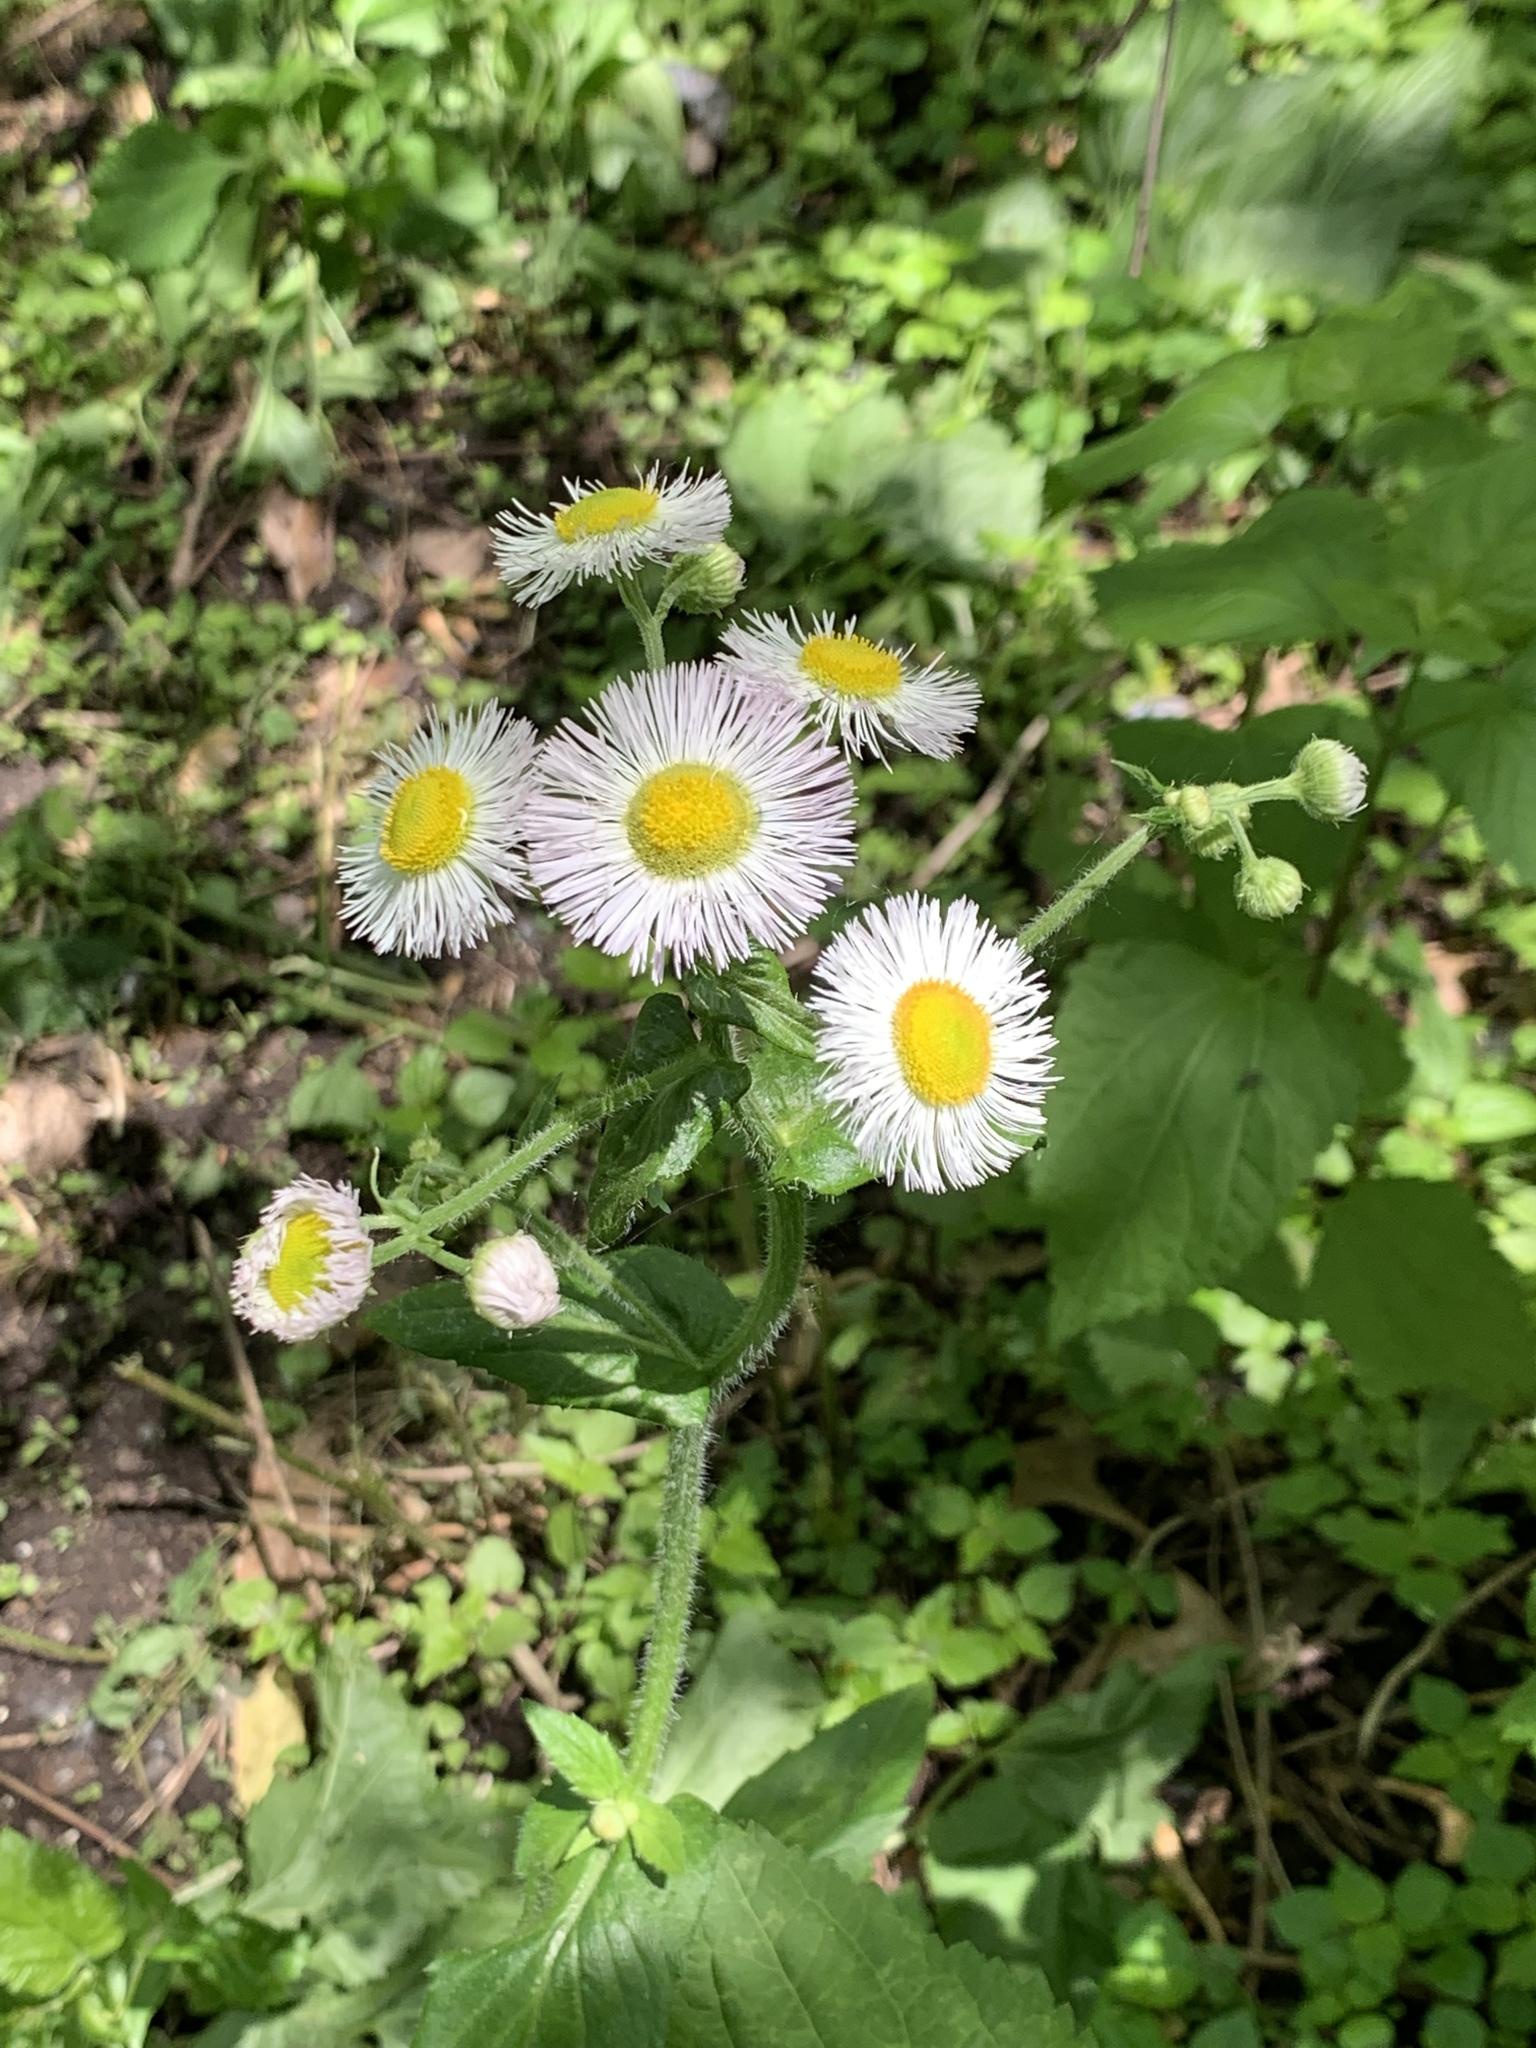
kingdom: Plantae
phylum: Tracheophyta
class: Magnoliopsida
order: Asterales
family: Asteraceae
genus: Erigeron
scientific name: Erigeron philadelphicus
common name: Robin's-plantain
